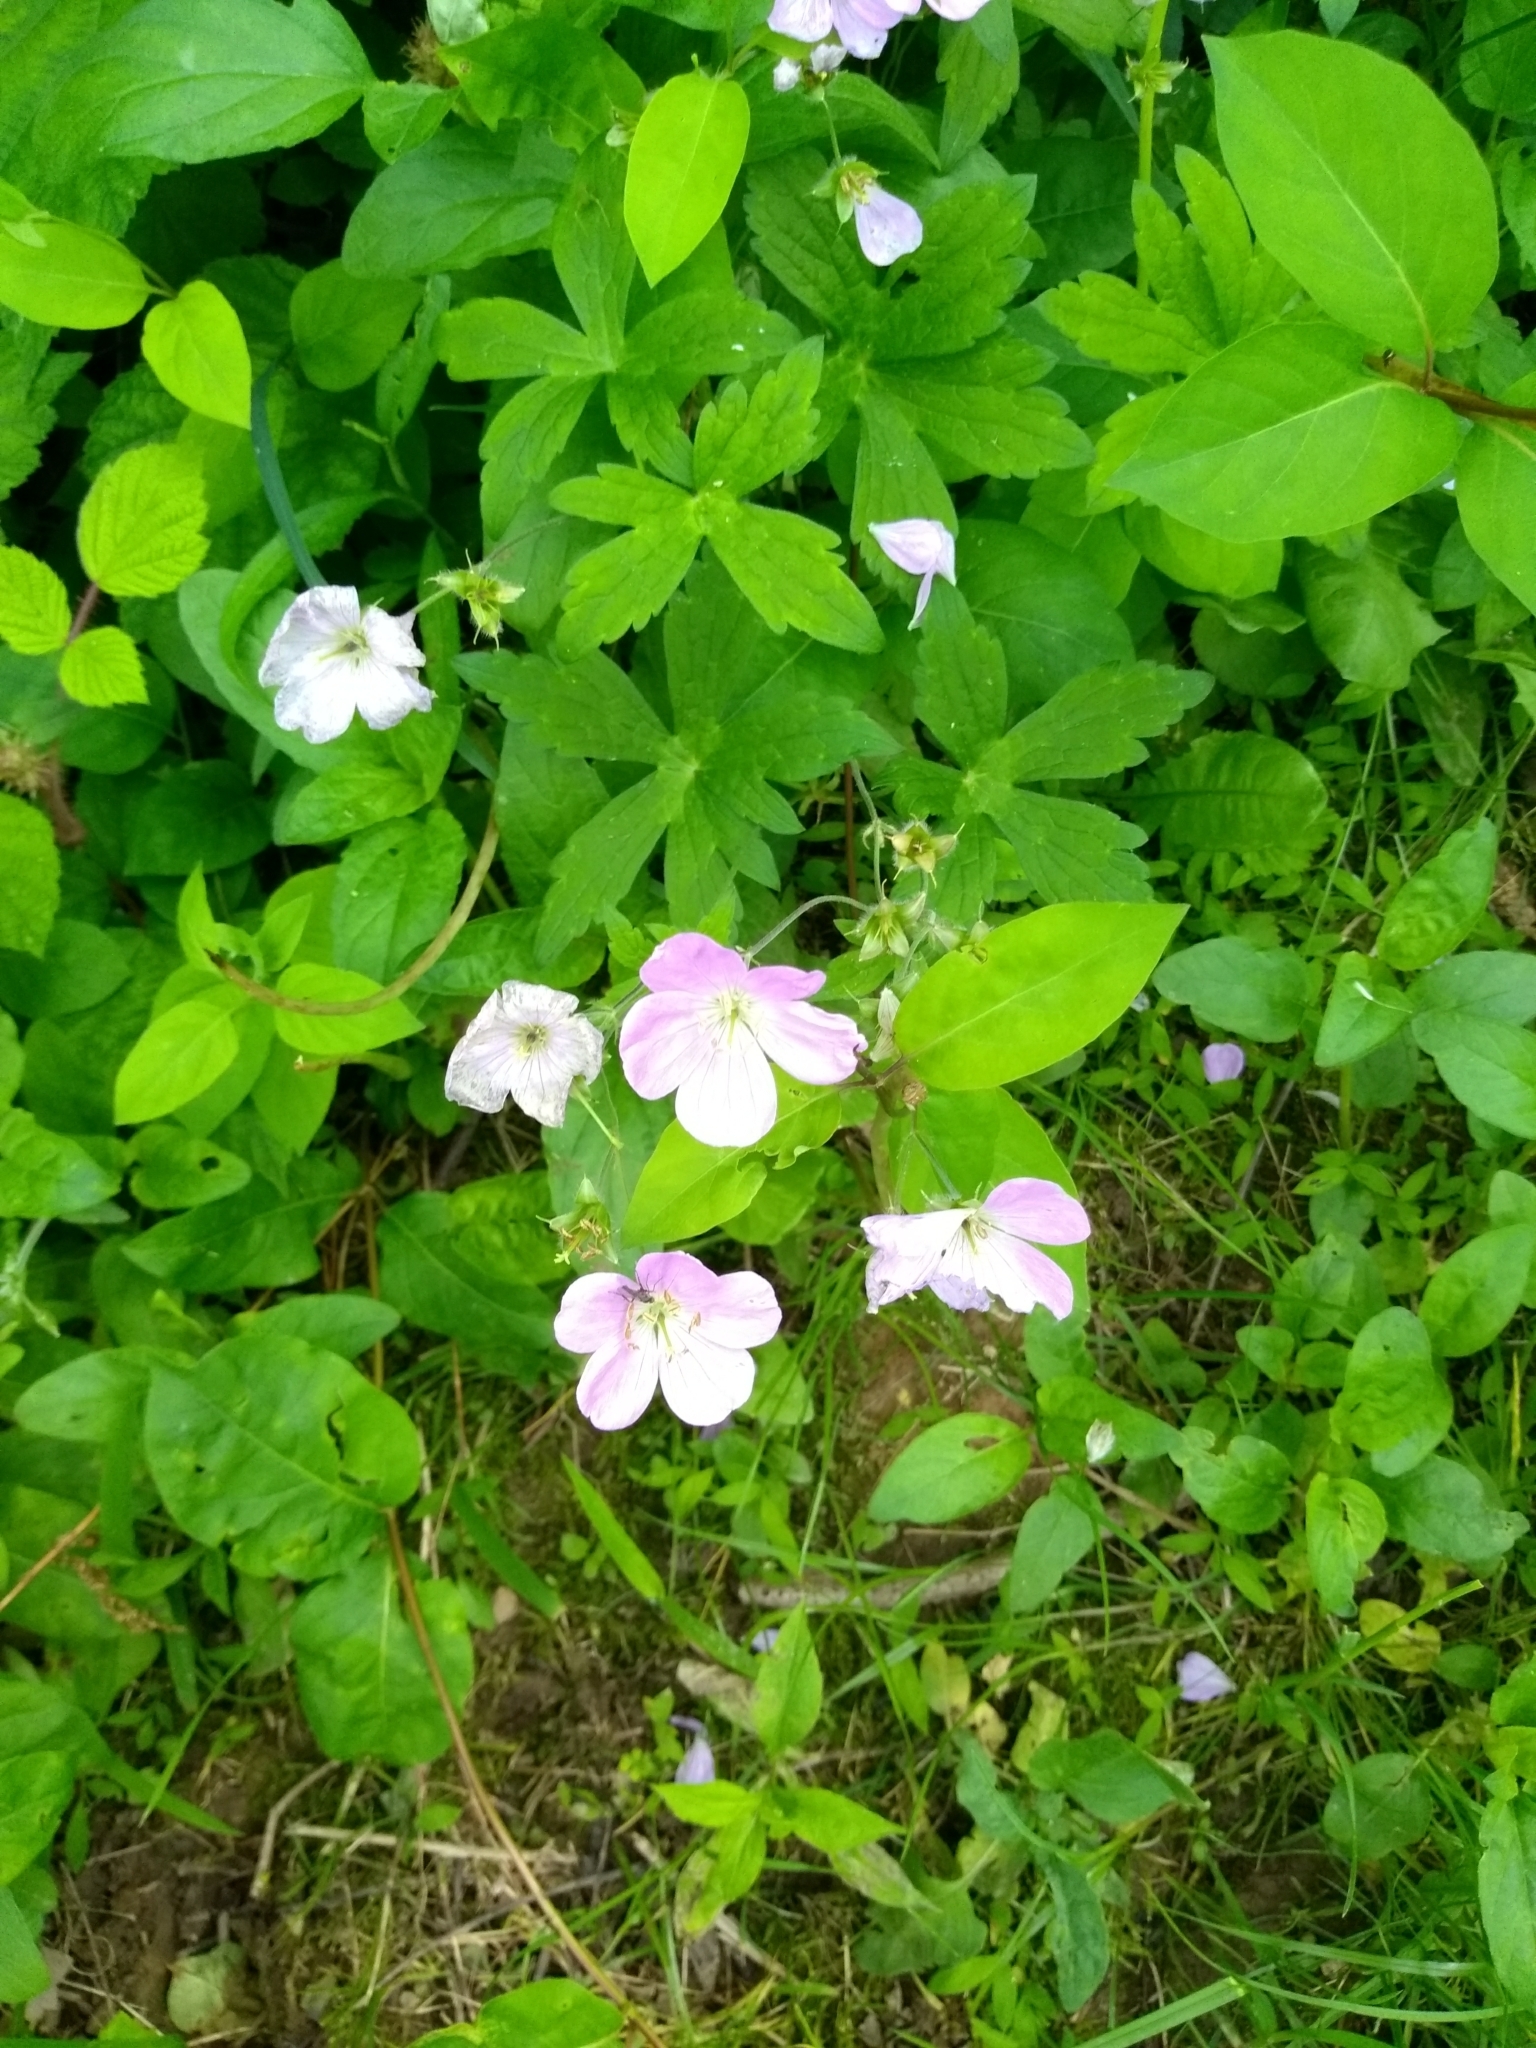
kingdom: Plantae
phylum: Tracheophyta
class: Magnoliopsida
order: Geraniales
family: Geraniaceae
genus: Geranium
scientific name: Geranium maculatum
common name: Spotted geranium
